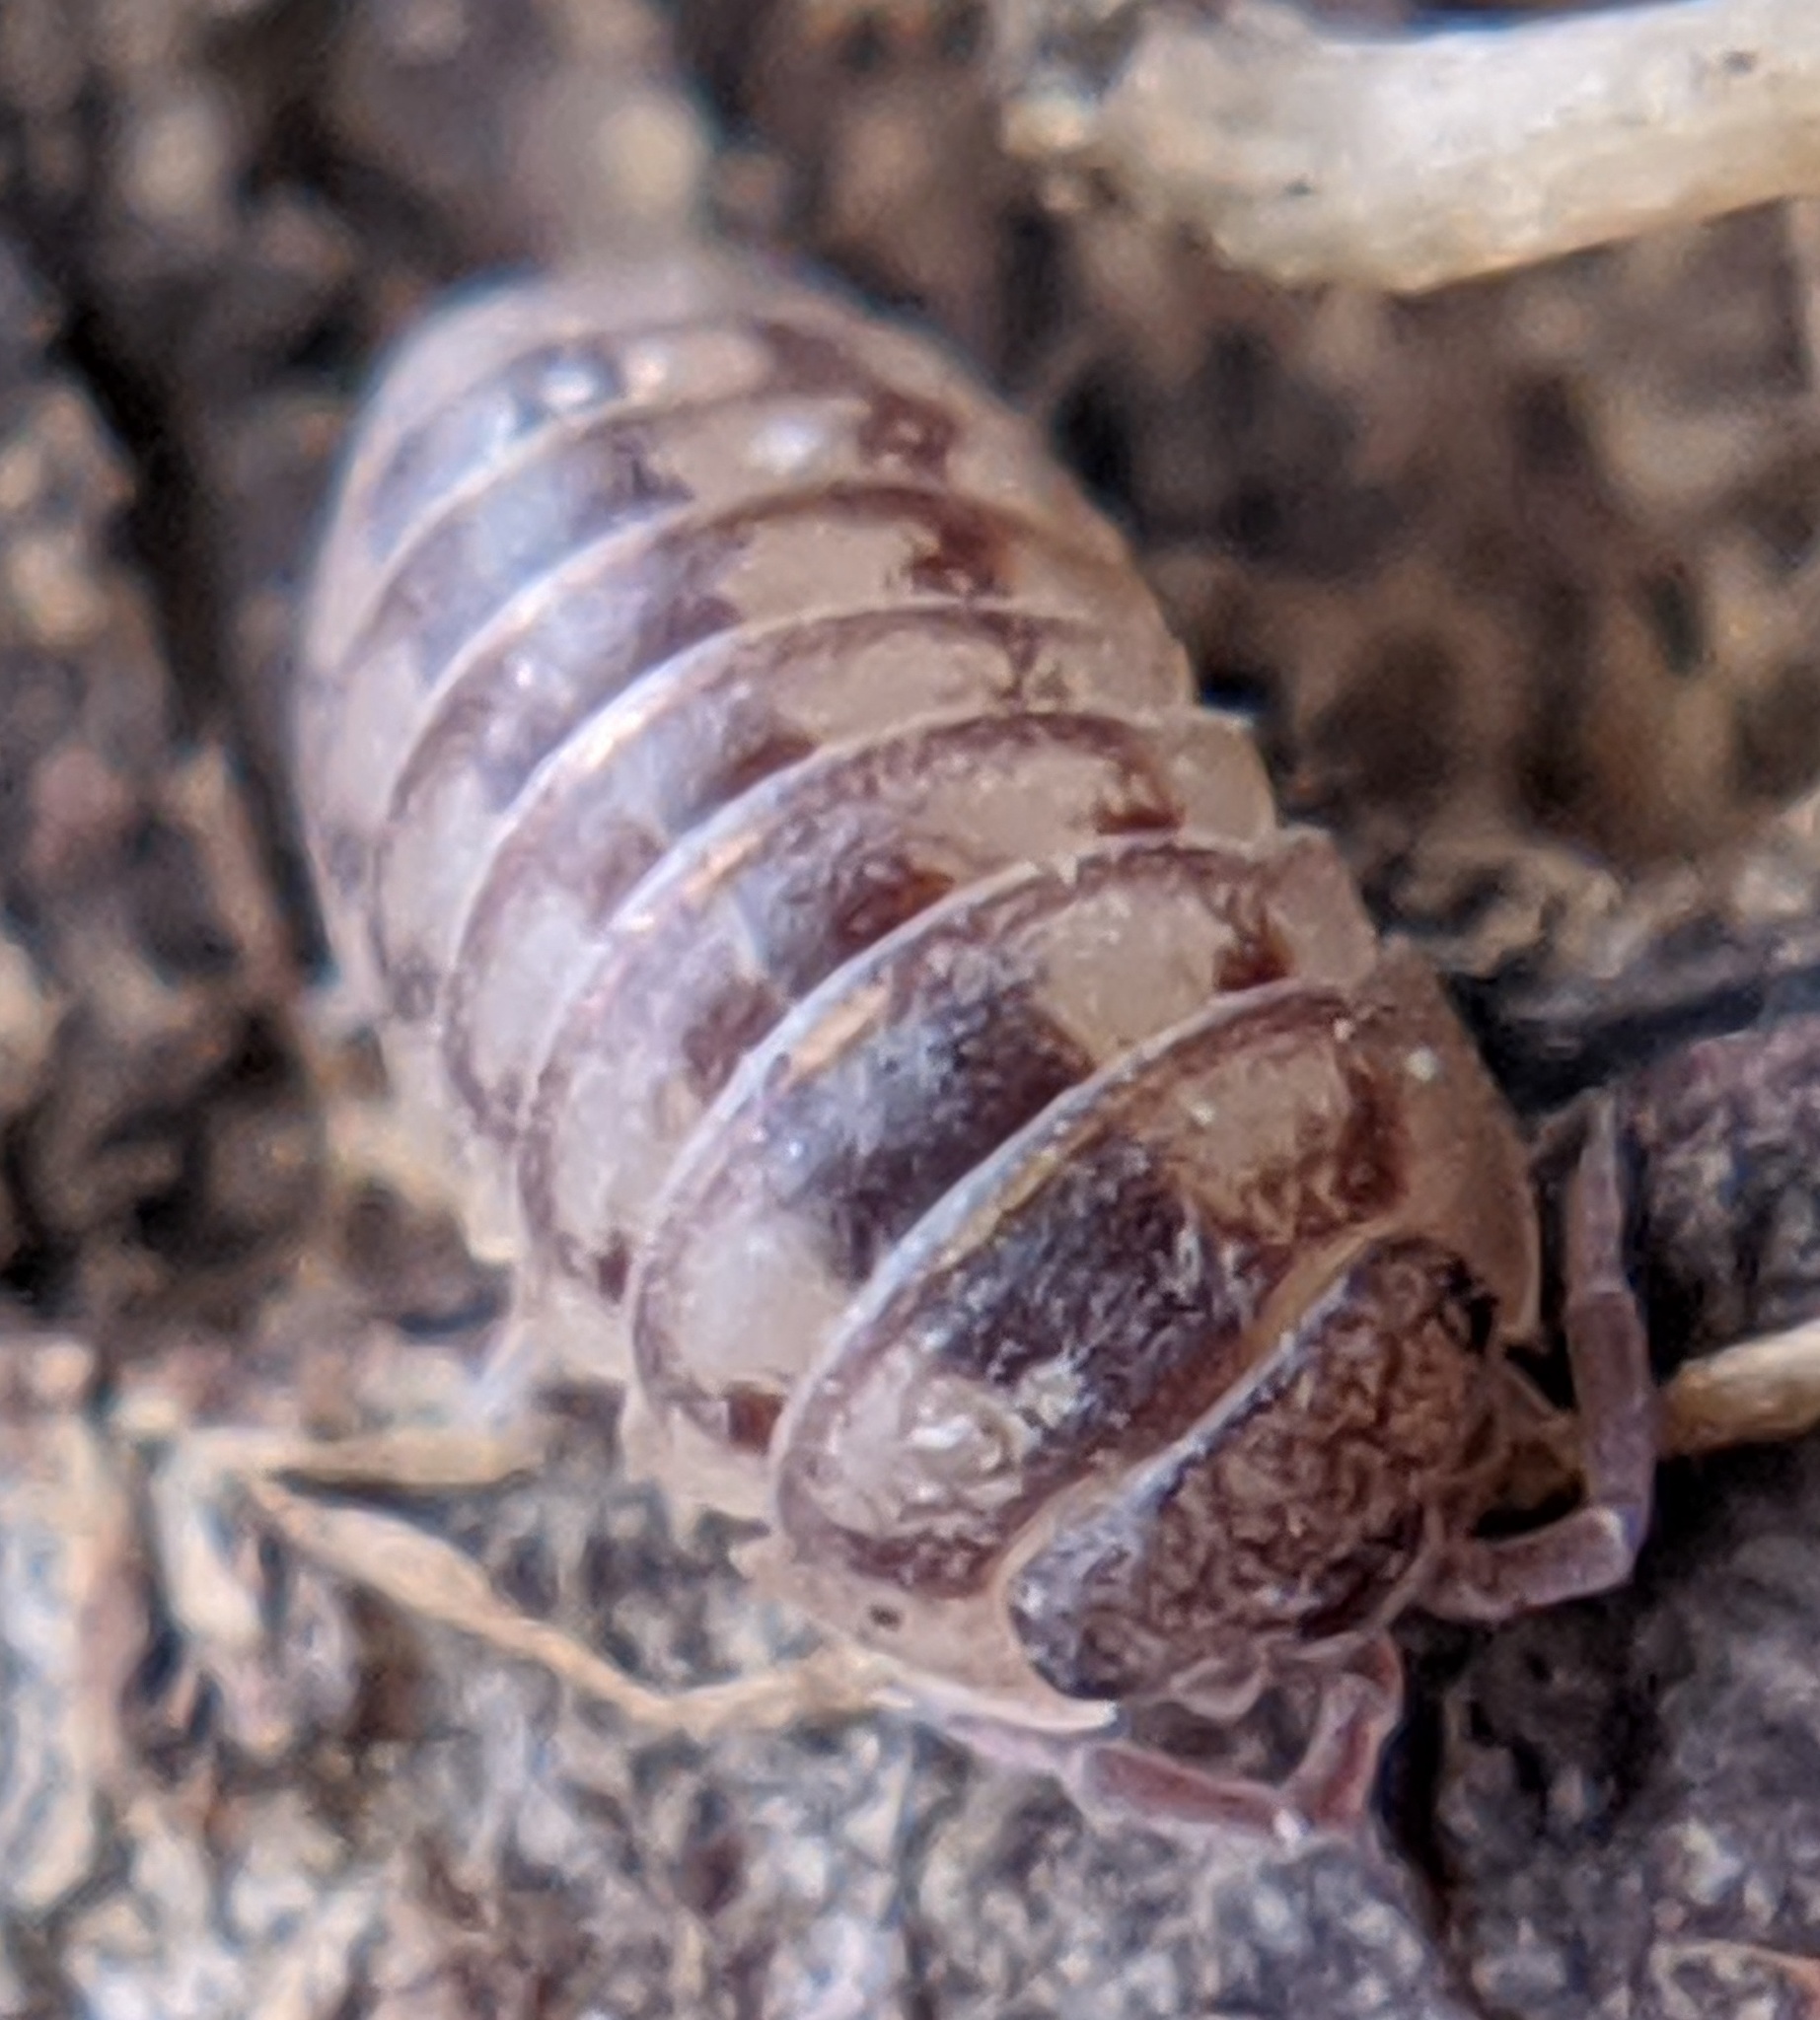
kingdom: Animalia
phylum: Arthropoda
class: Malacostraca
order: Isopoda
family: Armadillidiidae
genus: Armadillidium
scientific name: Armadillidium nasatum
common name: Isopod
